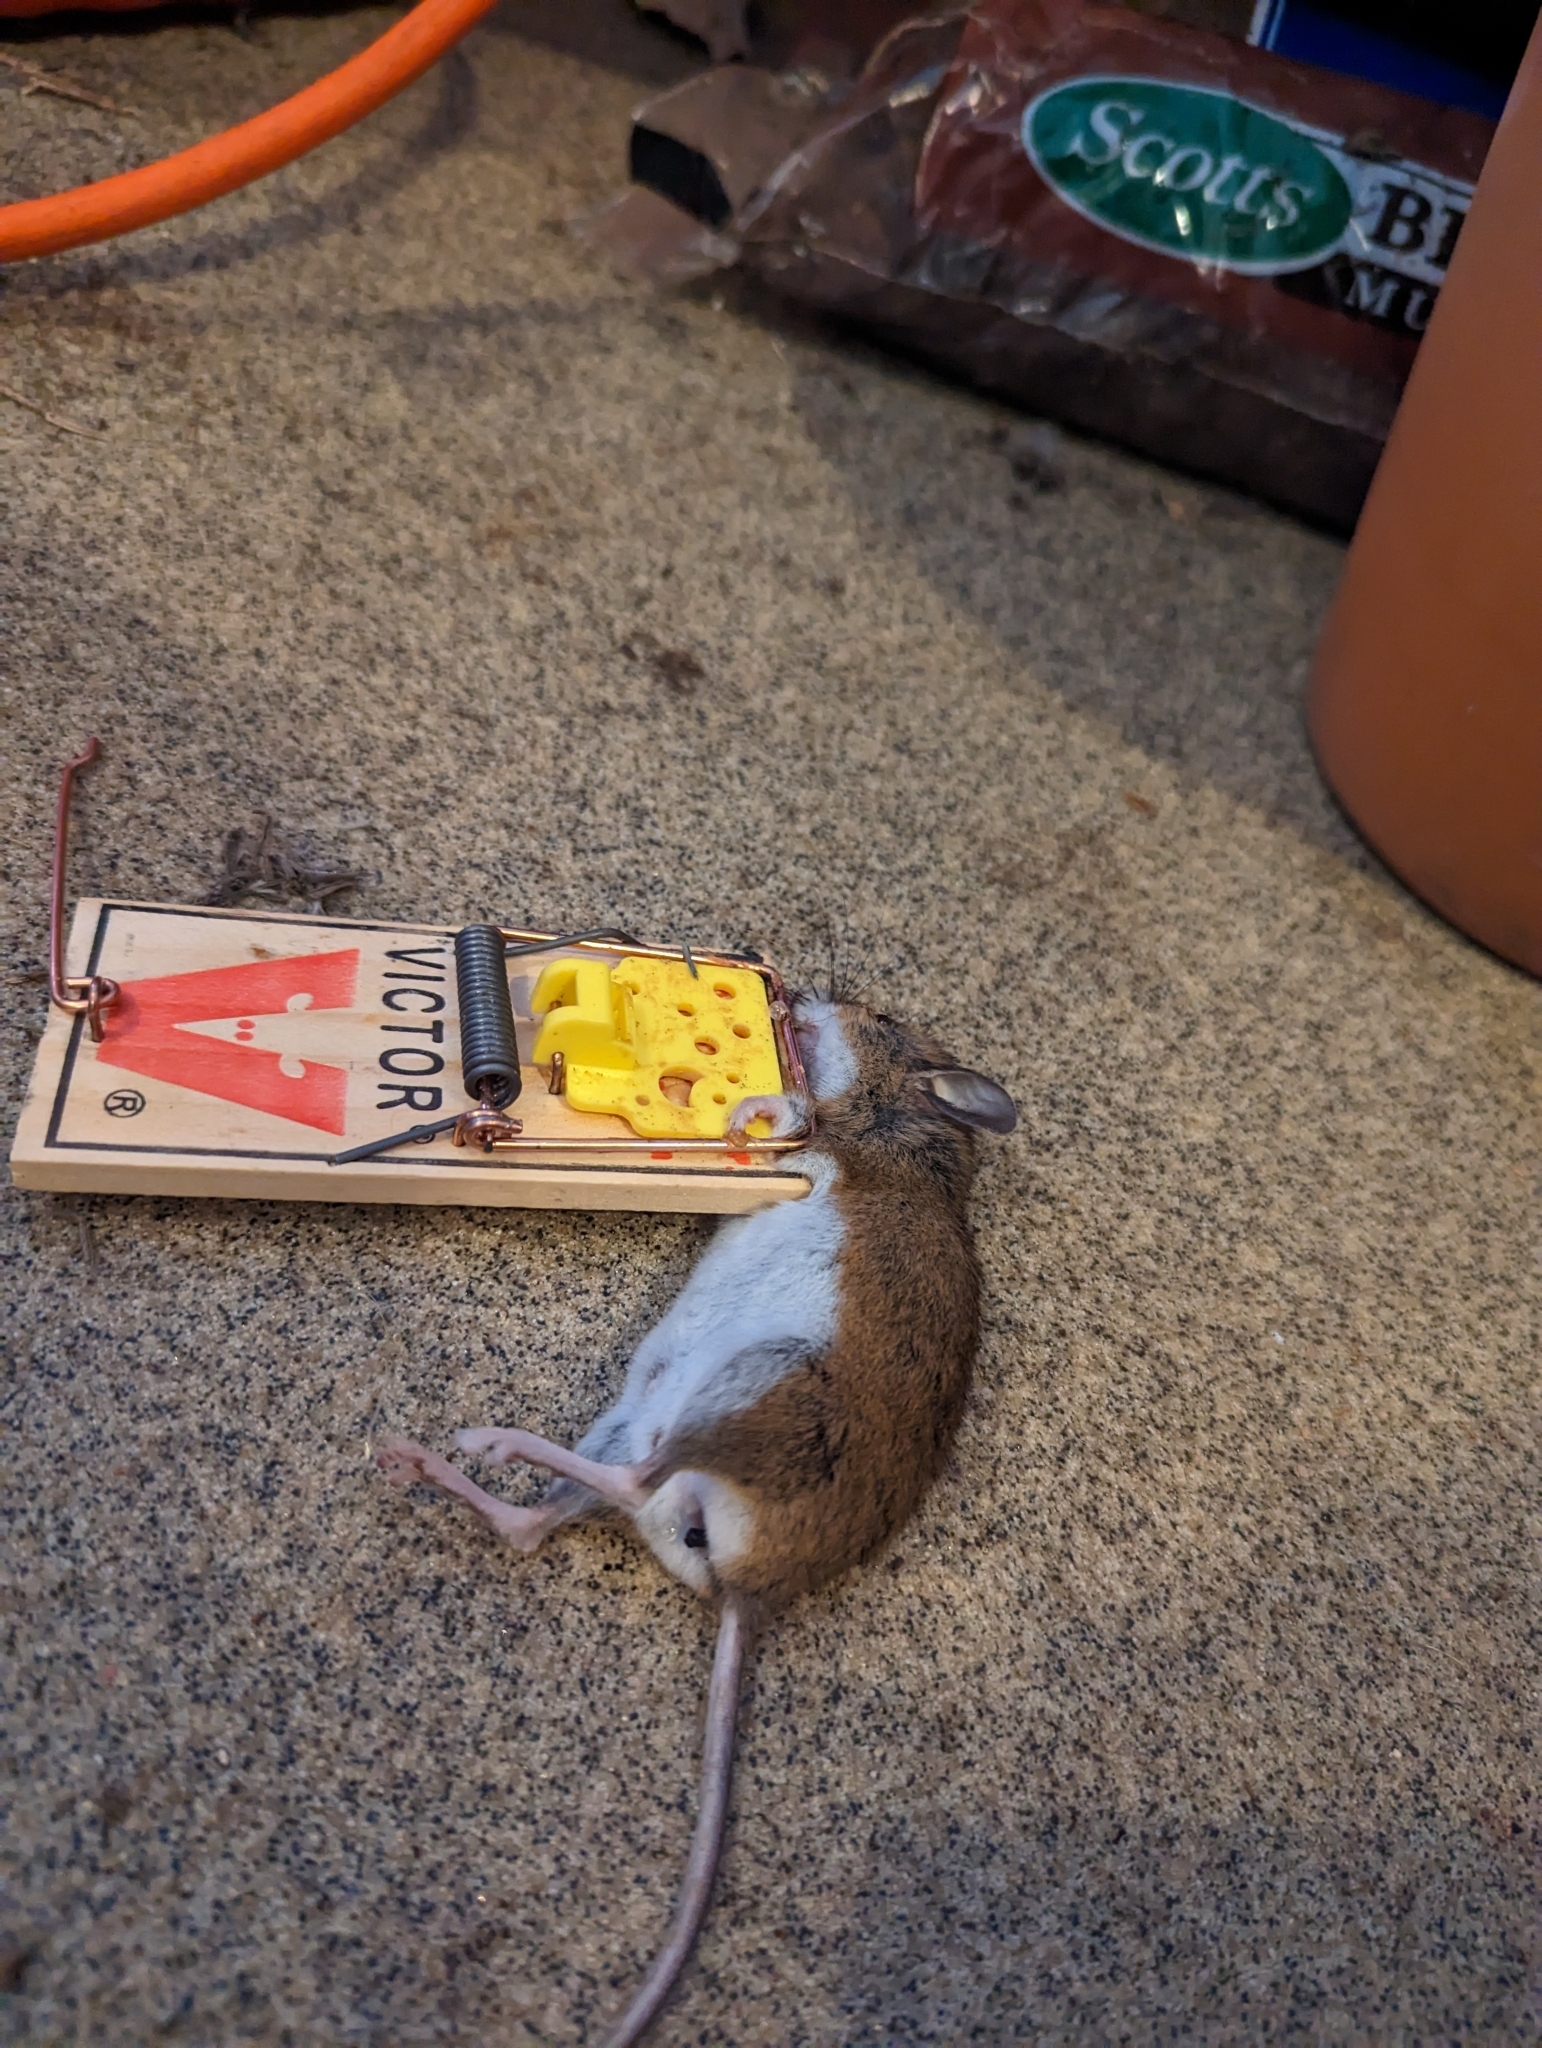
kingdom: Animalia
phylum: Chordata
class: Mammalia
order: Rodentia
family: Cricetidae
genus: Peromyscus
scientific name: Peromyscus leucopus
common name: White-footed deermouse
